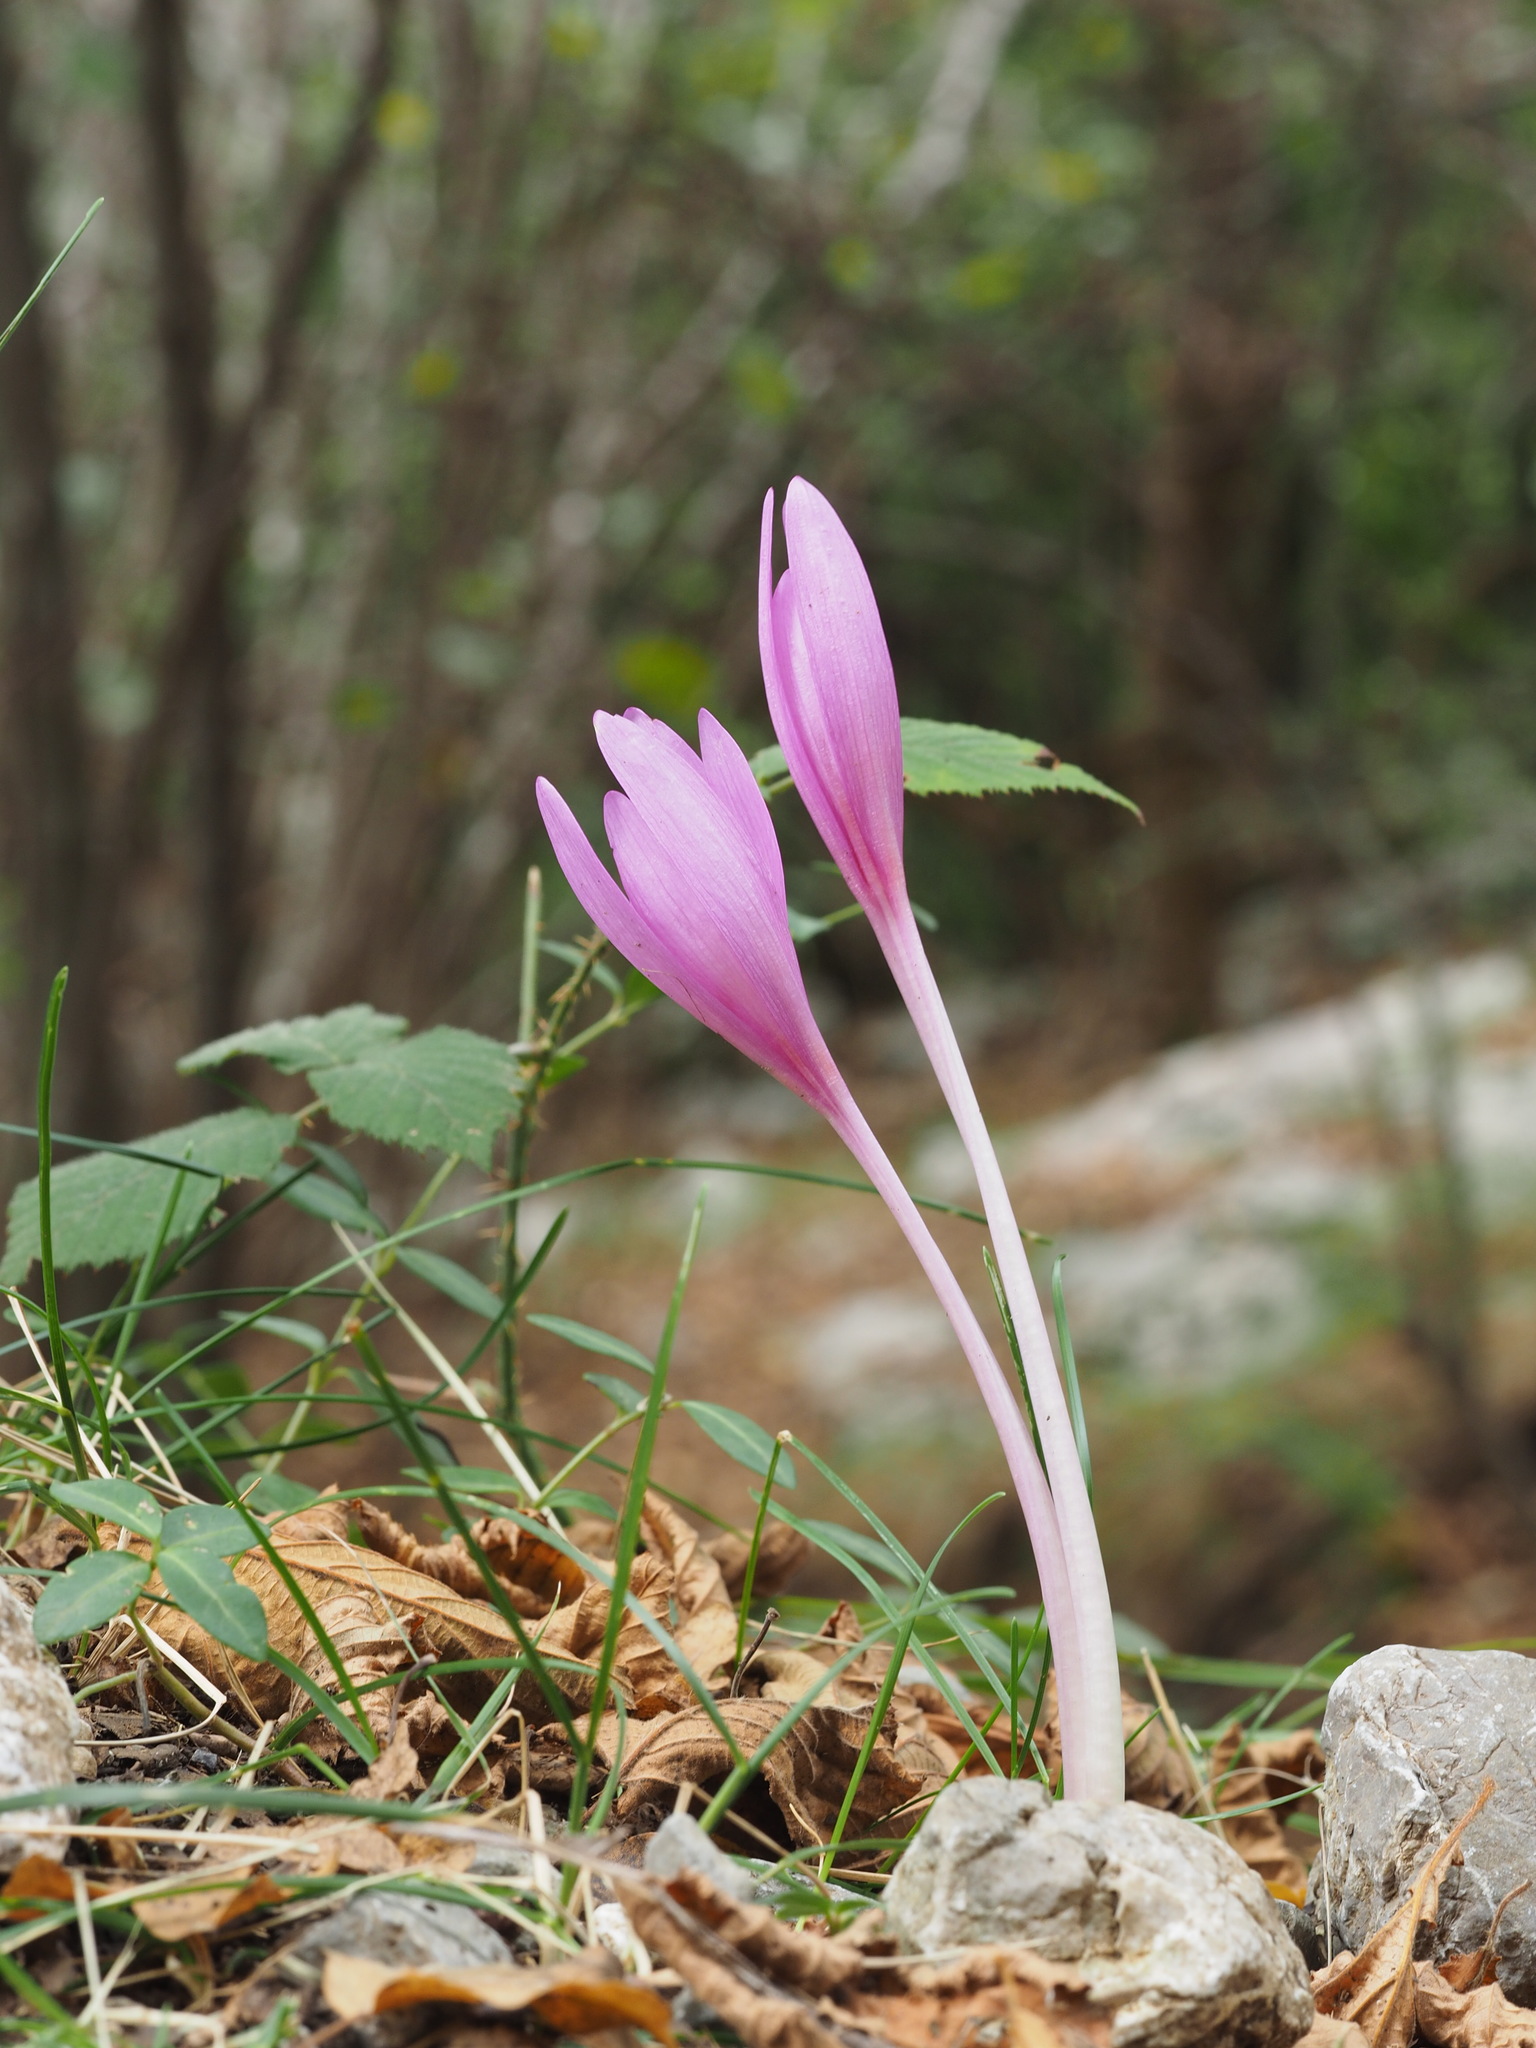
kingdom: Plantae
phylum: Tracheophyta
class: Liliopsida
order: Liliales
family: Colchicaceae
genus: Colchicum
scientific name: Colchicum autumnale
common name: Autumn crocus
